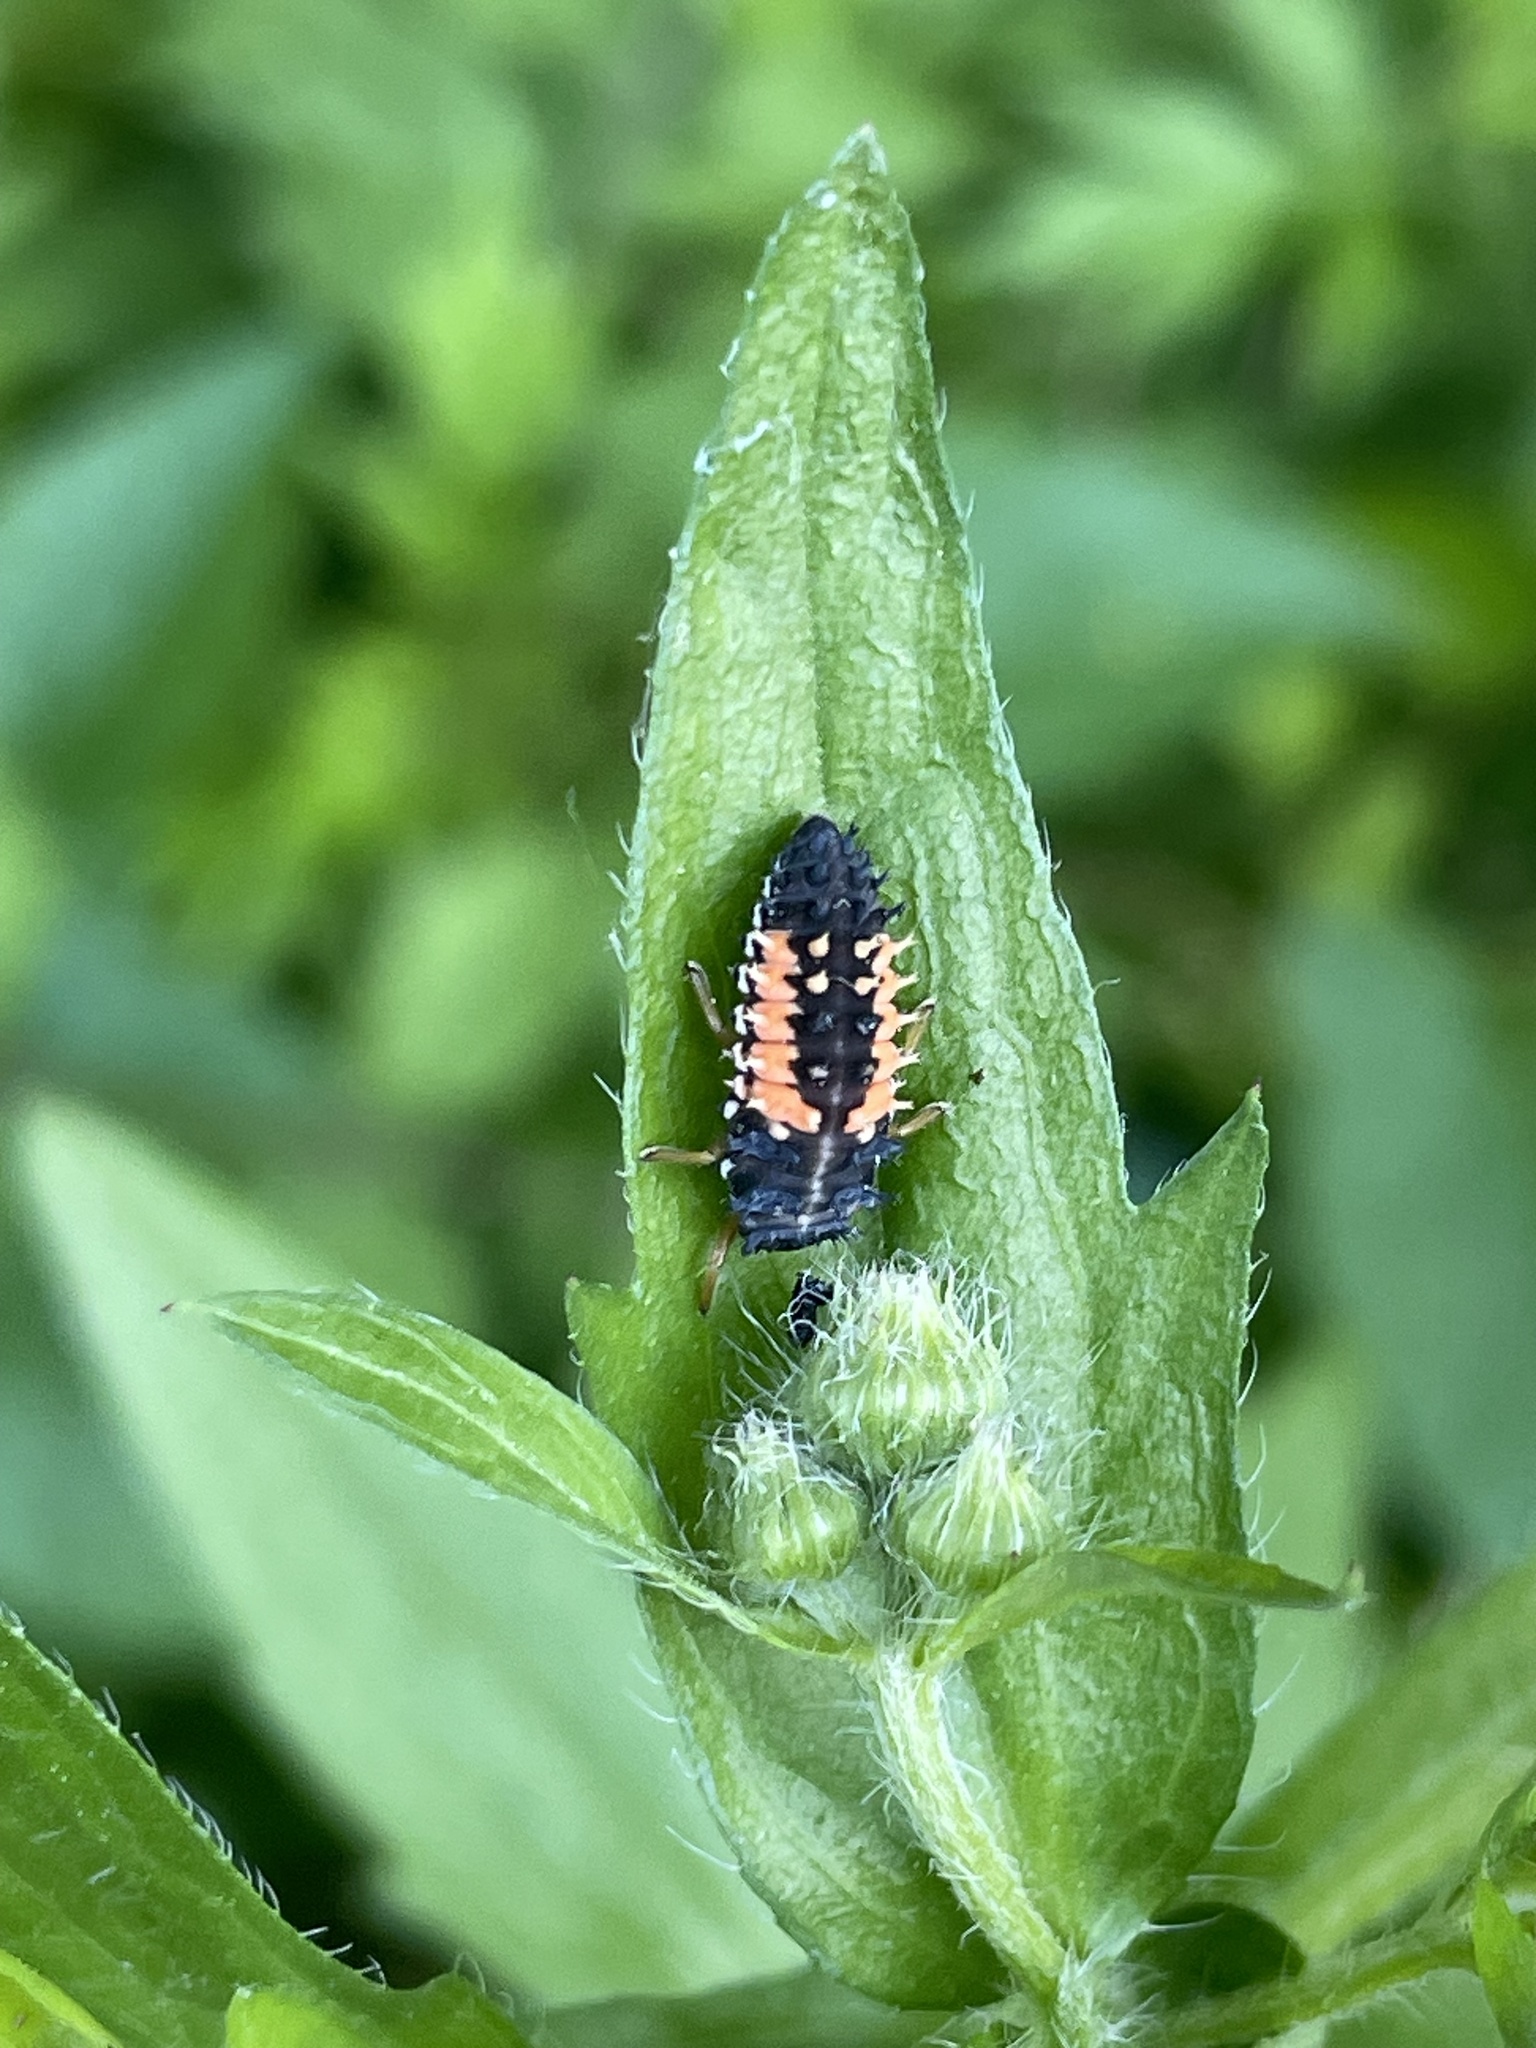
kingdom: Animalia
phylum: Arthropoda
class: Insecta
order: Coleoptera
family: Coccinellidae
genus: Harmonia
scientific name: Harmonia axyridis
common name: Harlequin ladybird
